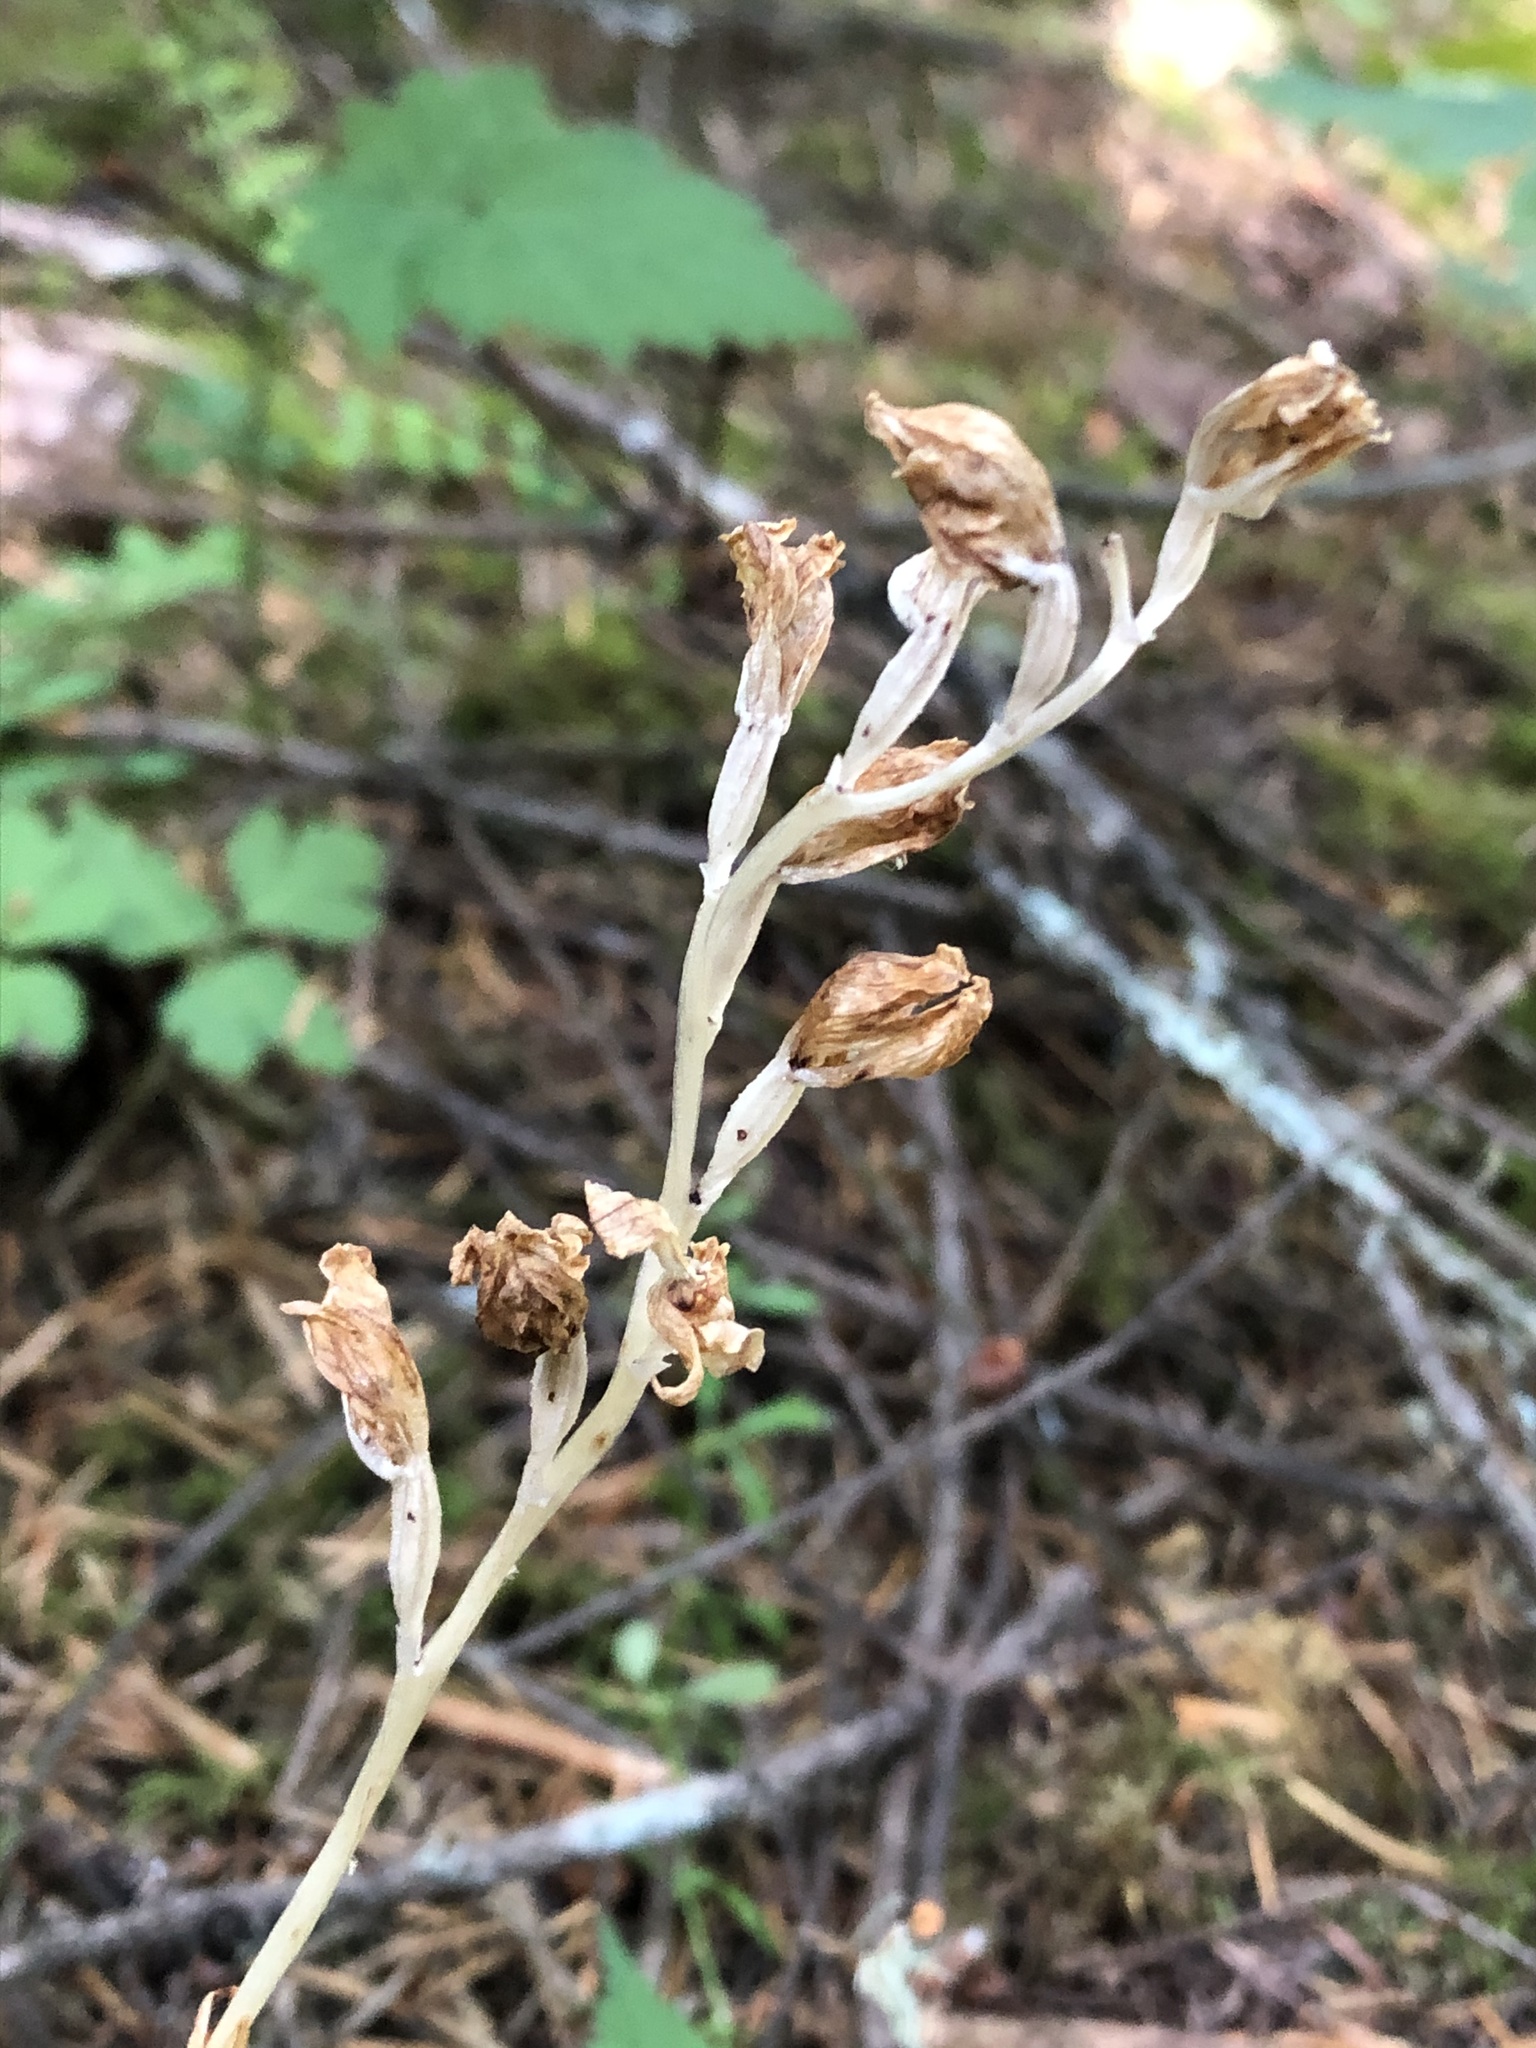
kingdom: Plantae
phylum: Tracheophyta
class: Liliopsida
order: Asparagales
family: Orchidaceae
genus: Cephalanthera
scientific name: Cephalanthera austiniae
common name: Phantom orchid
